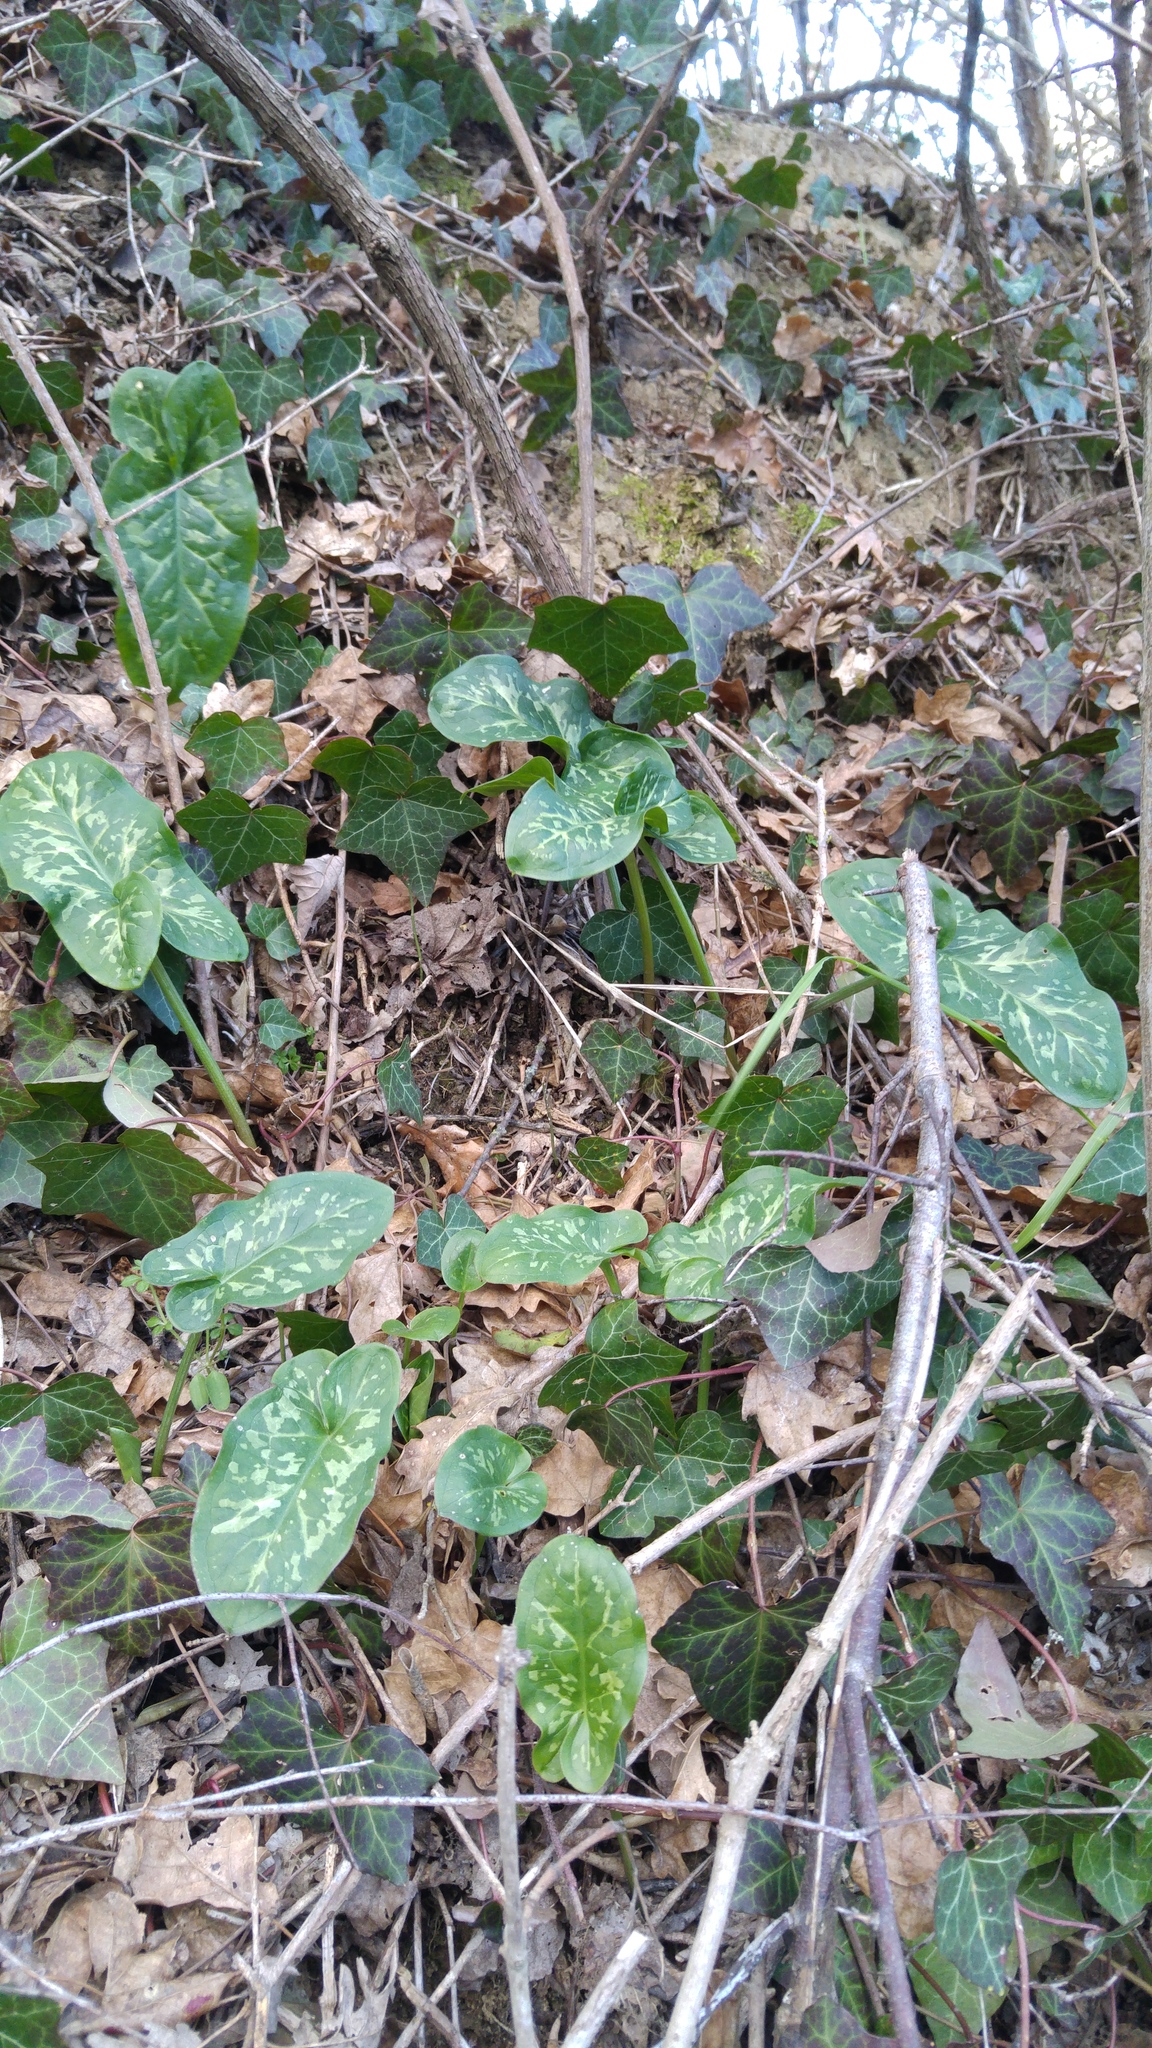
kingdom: Plantae
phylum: Tracheophyta
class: Liliopsida
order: Alismatales
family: Araceae
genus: Arum
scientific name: Arum italicum
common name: Italian lords-and-ladies
